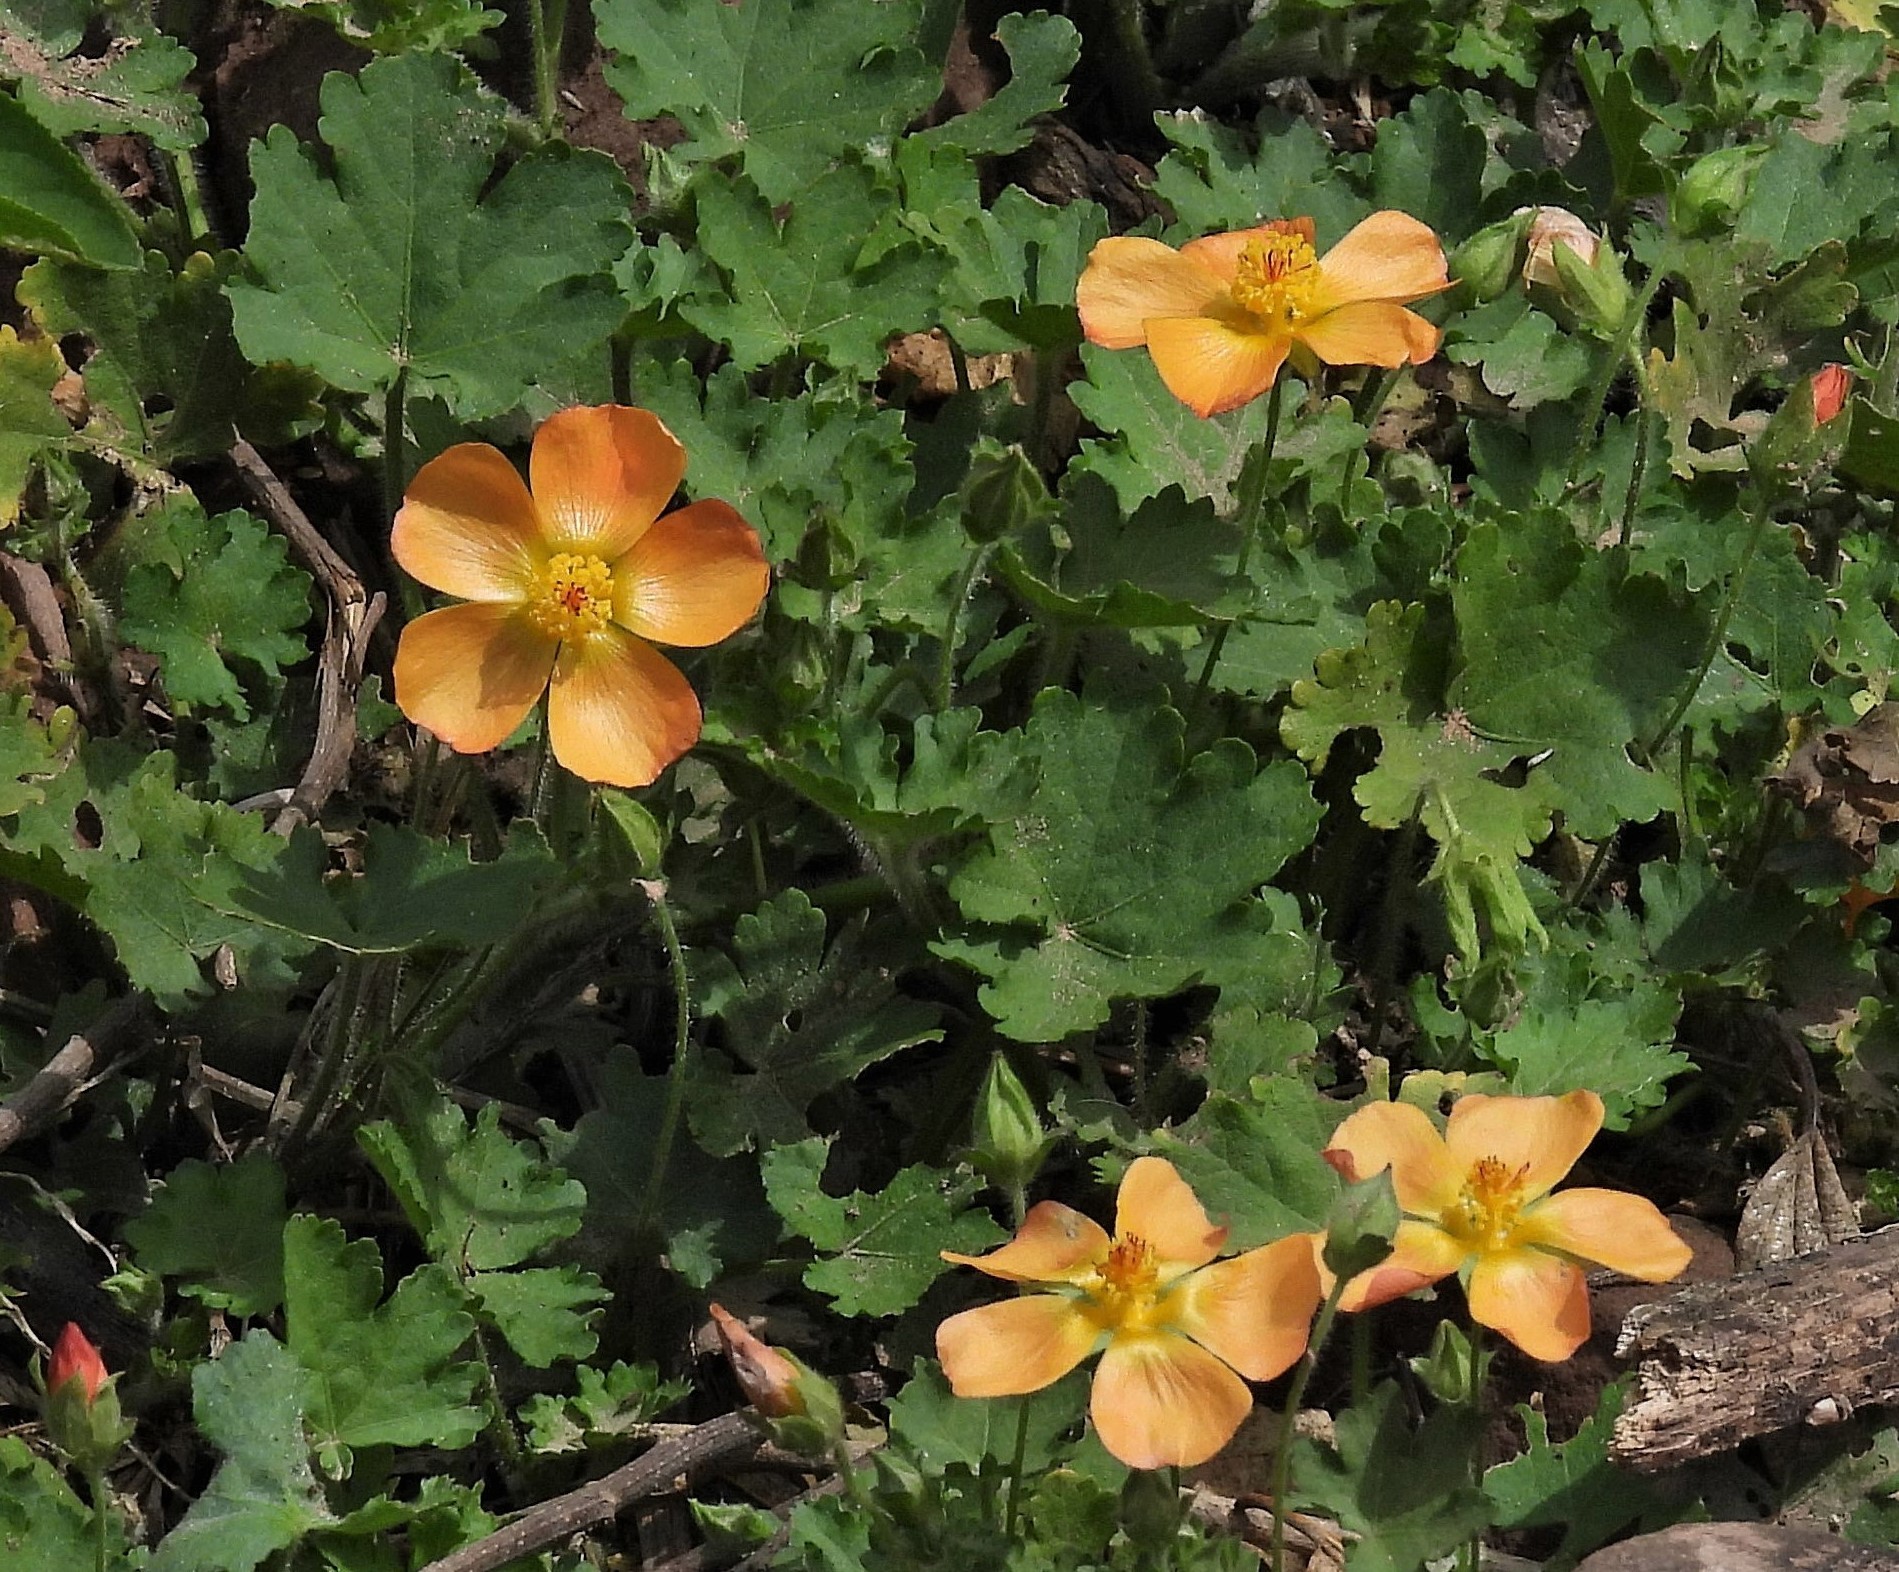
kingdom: Plantae
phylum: Tracheophyta
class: Magnoliopsida
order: Malvales
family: Malvaceae
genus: Modiolastrum
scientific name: Modiolastrum malvifolium
